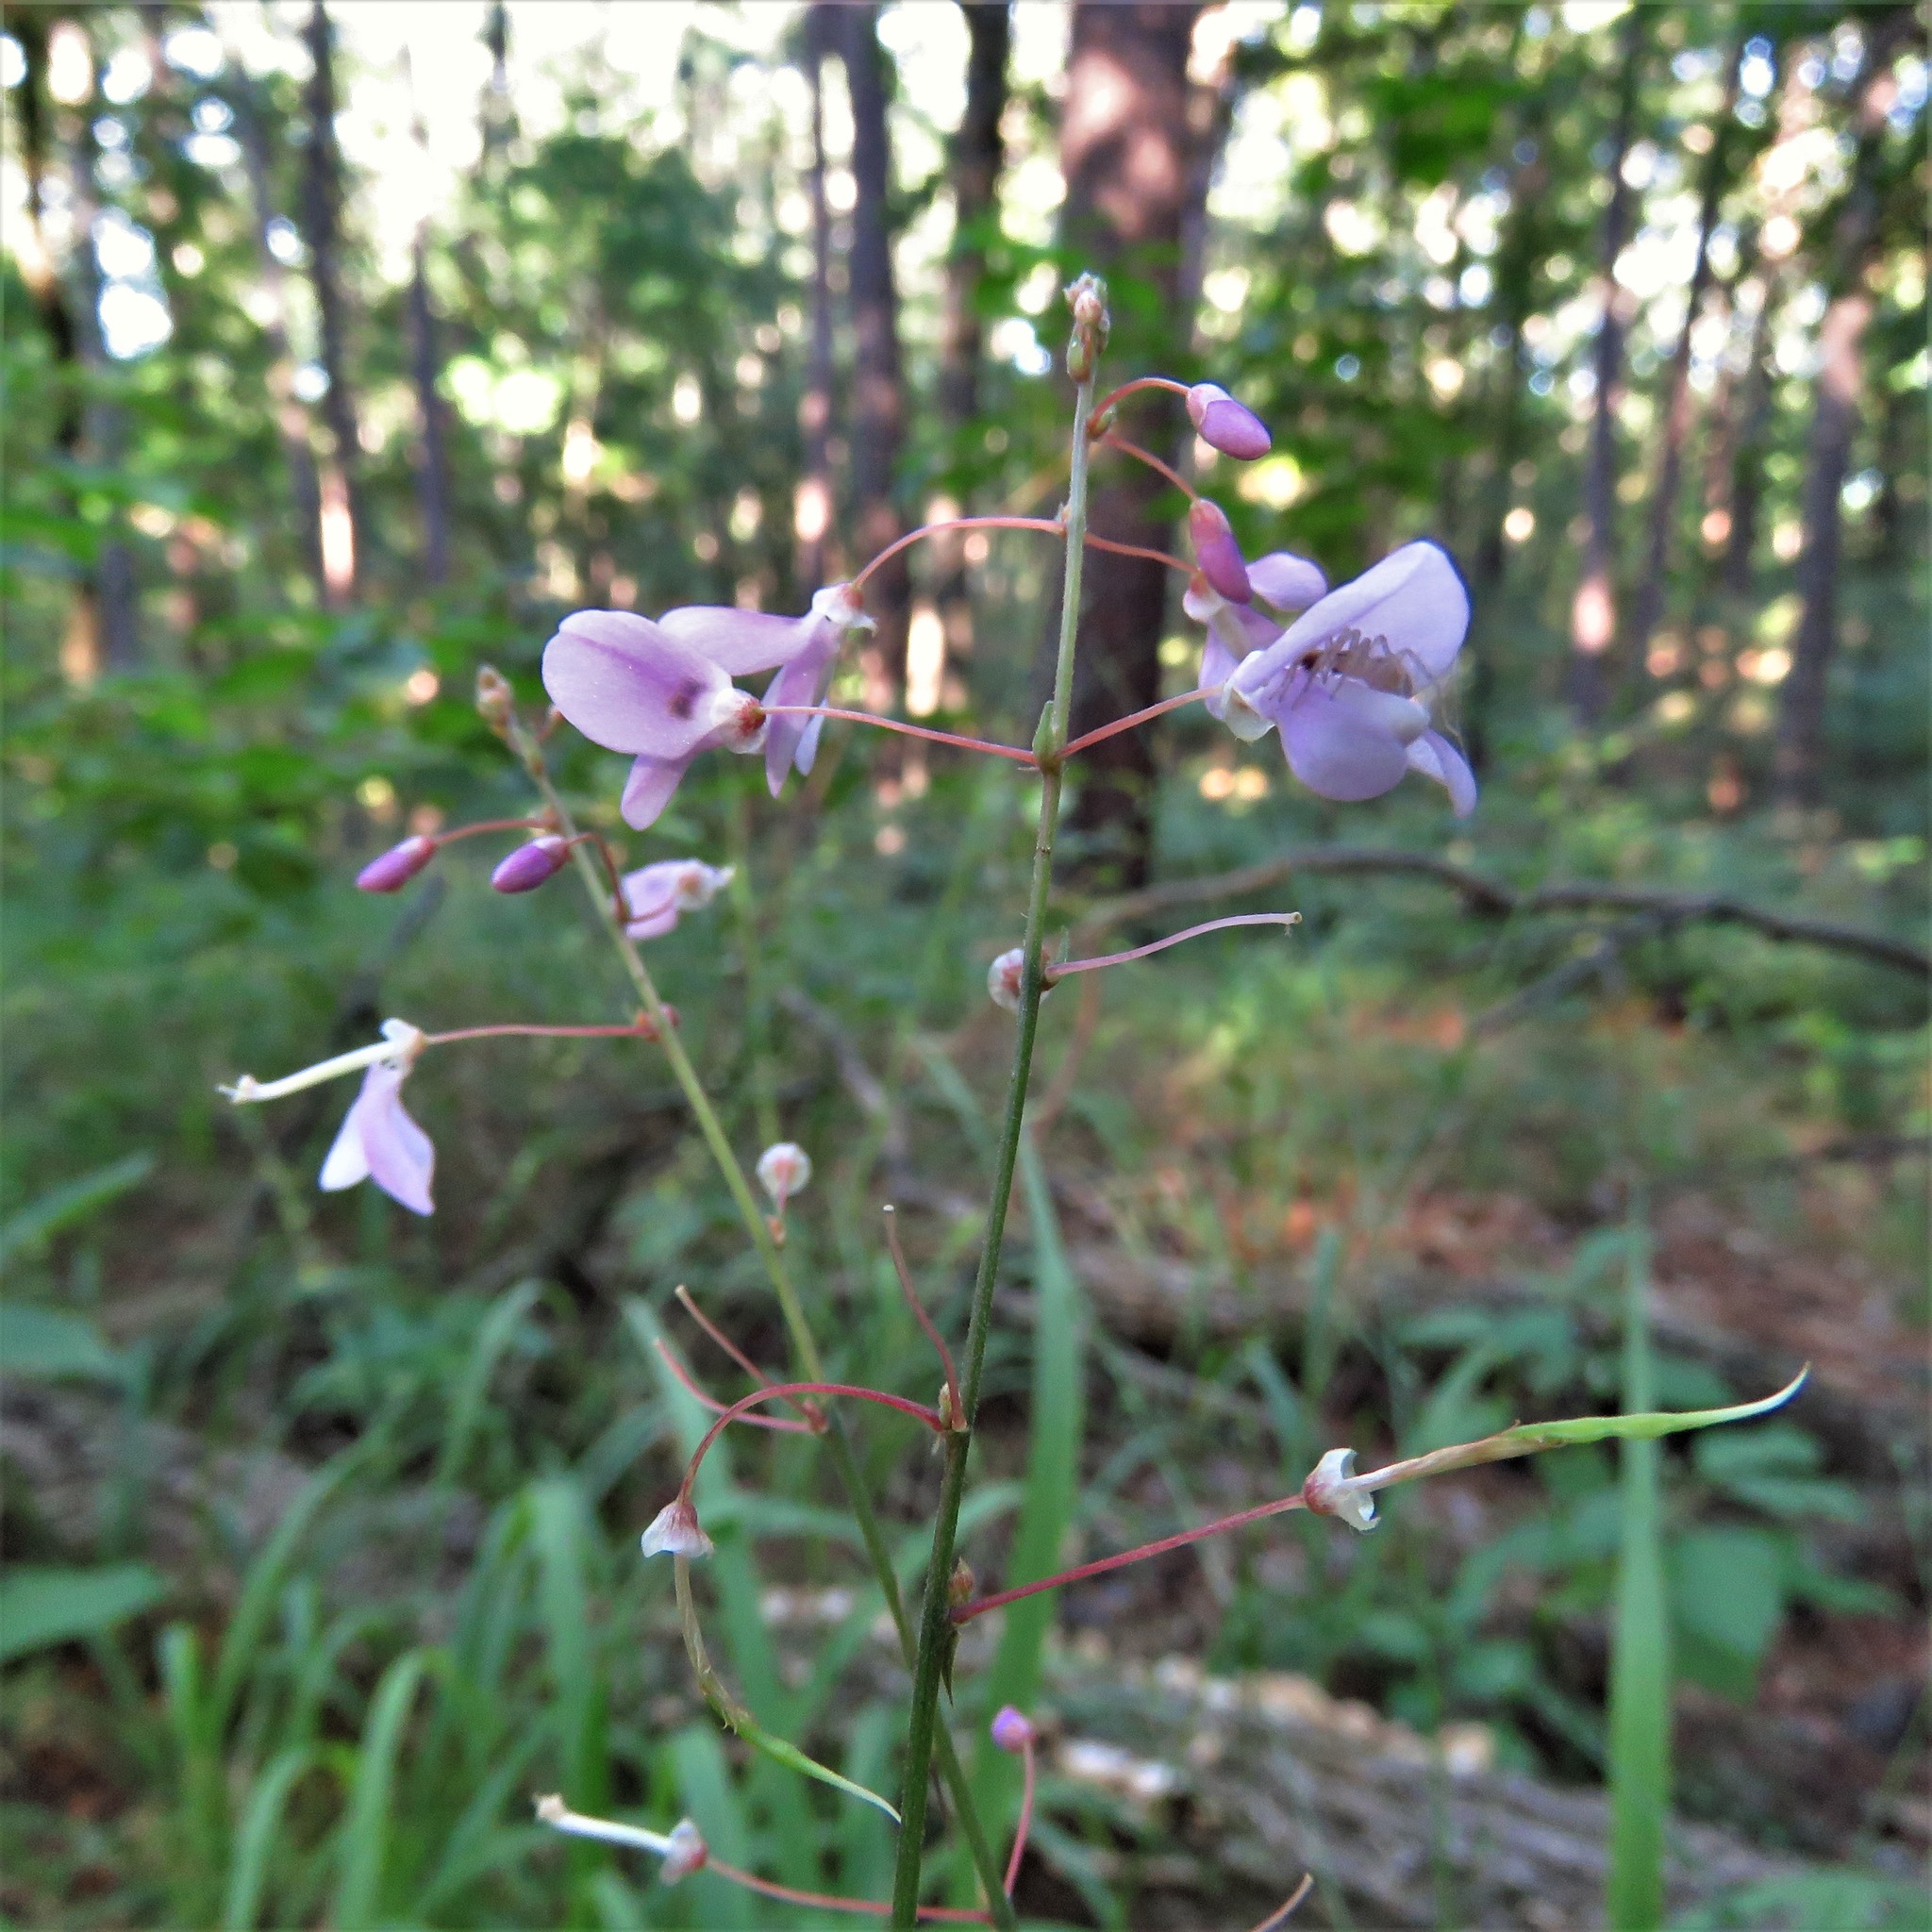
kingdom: Plantae
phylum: Tracheophyta
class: Magnoliopsida
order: Fabales
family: Fabaceae
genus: Hylodesmum
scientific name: Hylodesmum nudiflorum
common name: Bare-stemmed tick-trefoil
